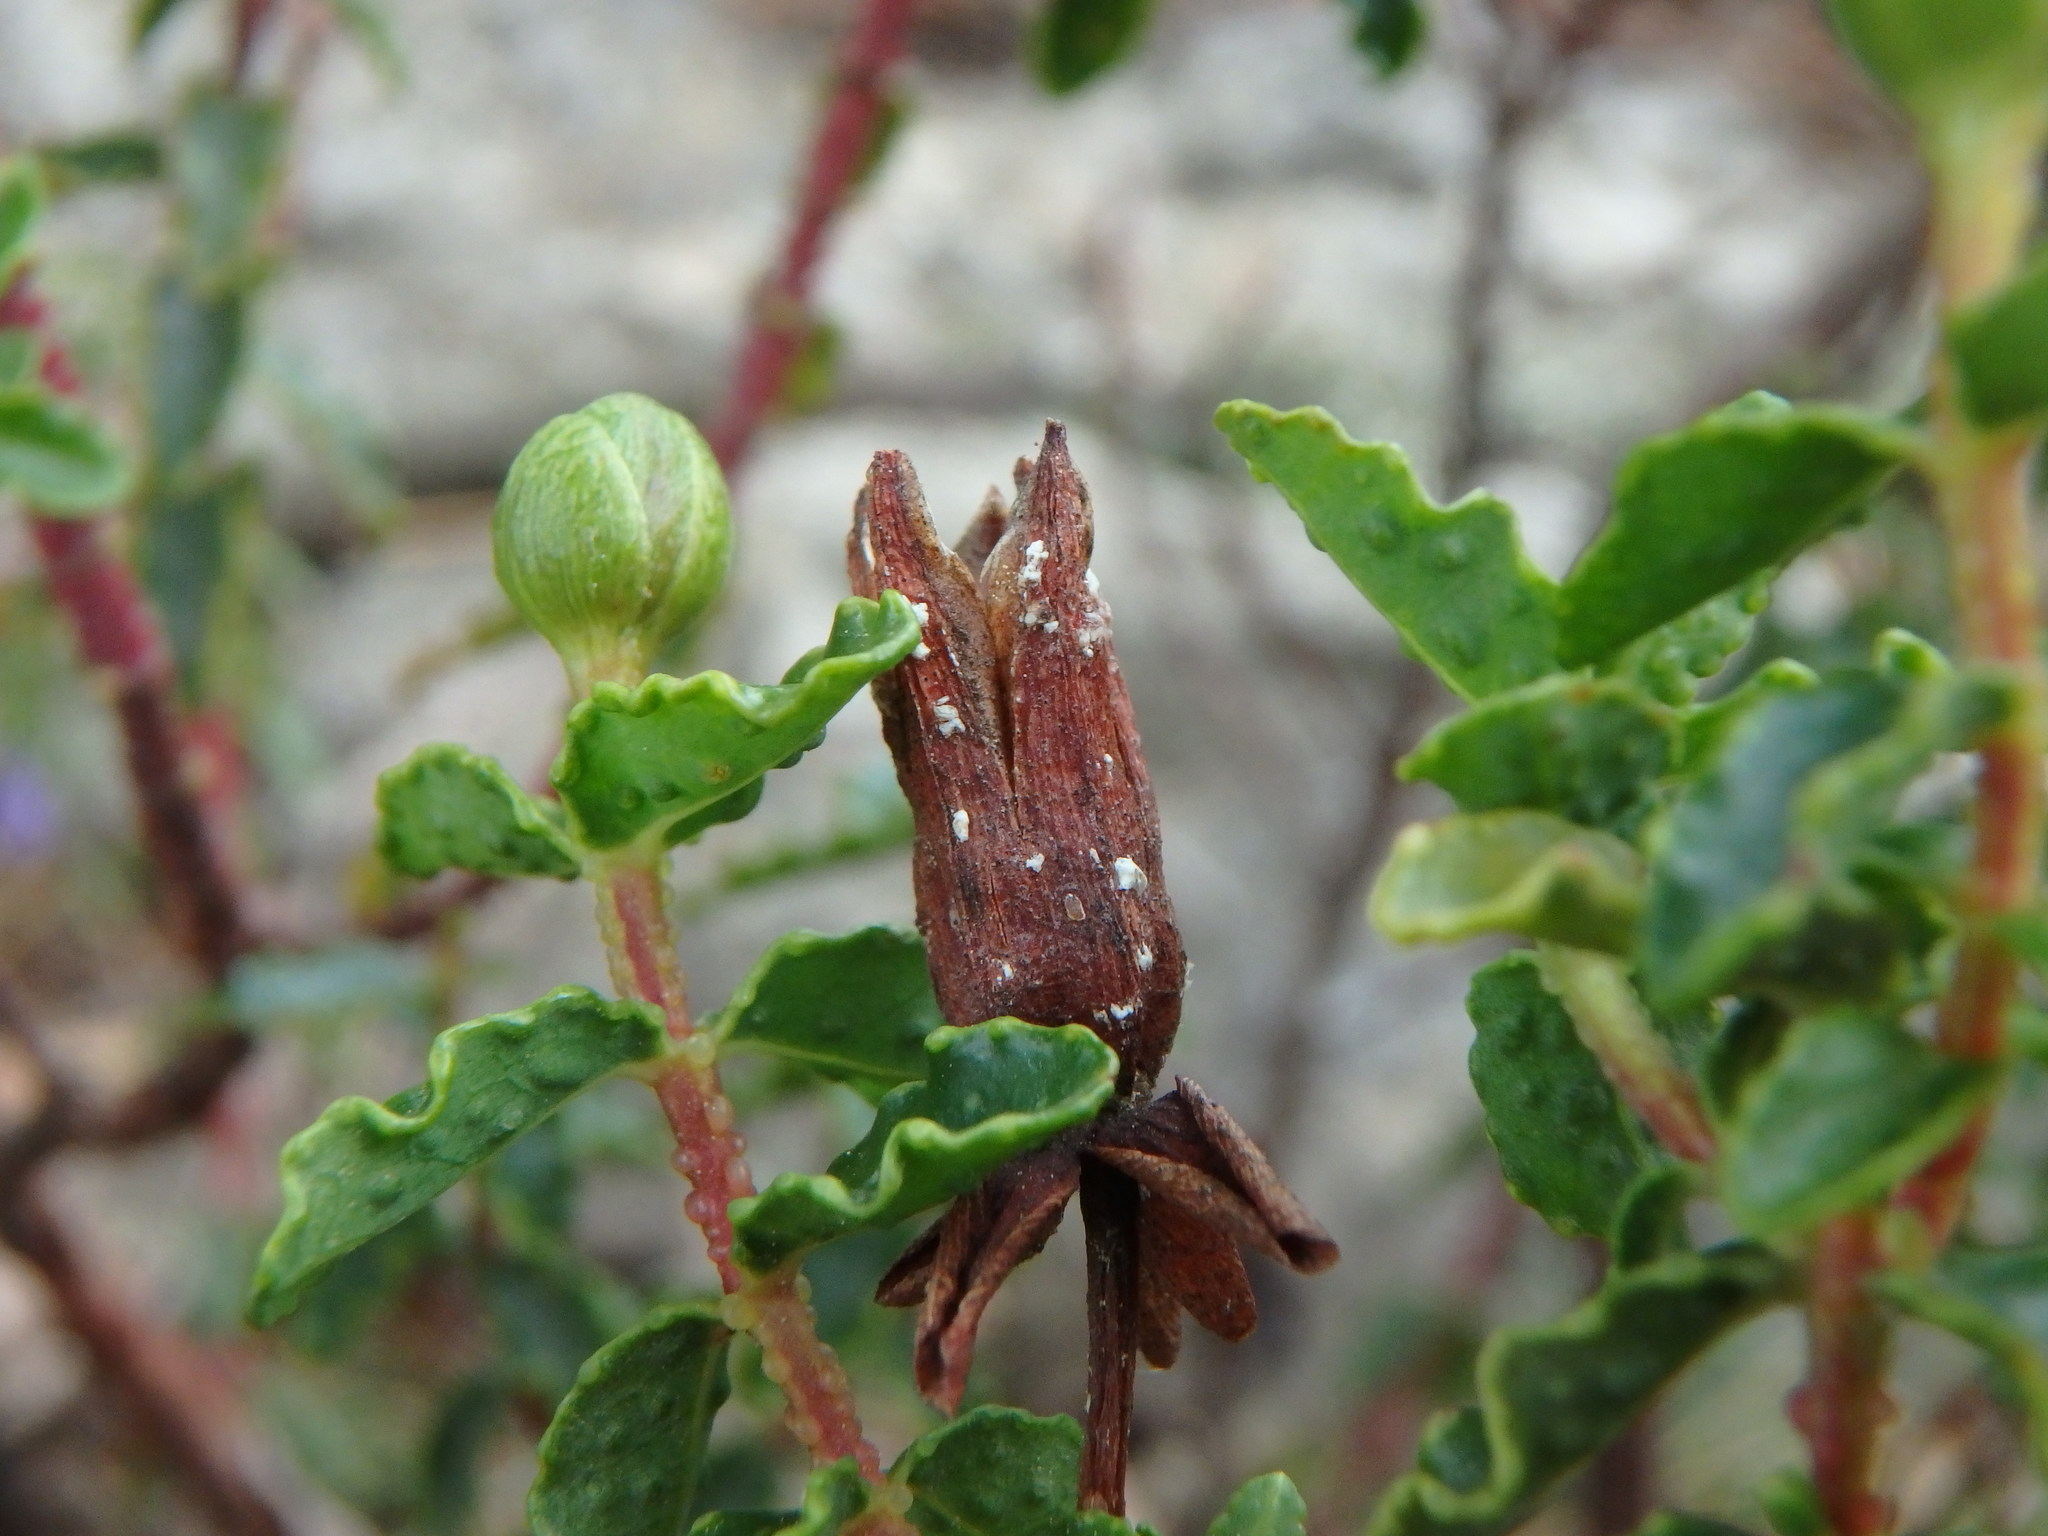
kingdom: Plantae
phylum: Tracheophyta
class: Magnoliopsida
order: Malpighiales
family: Hypericaceae
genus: Hypericum
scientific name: Hypericum balearicum
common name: Majorca st john's wort
